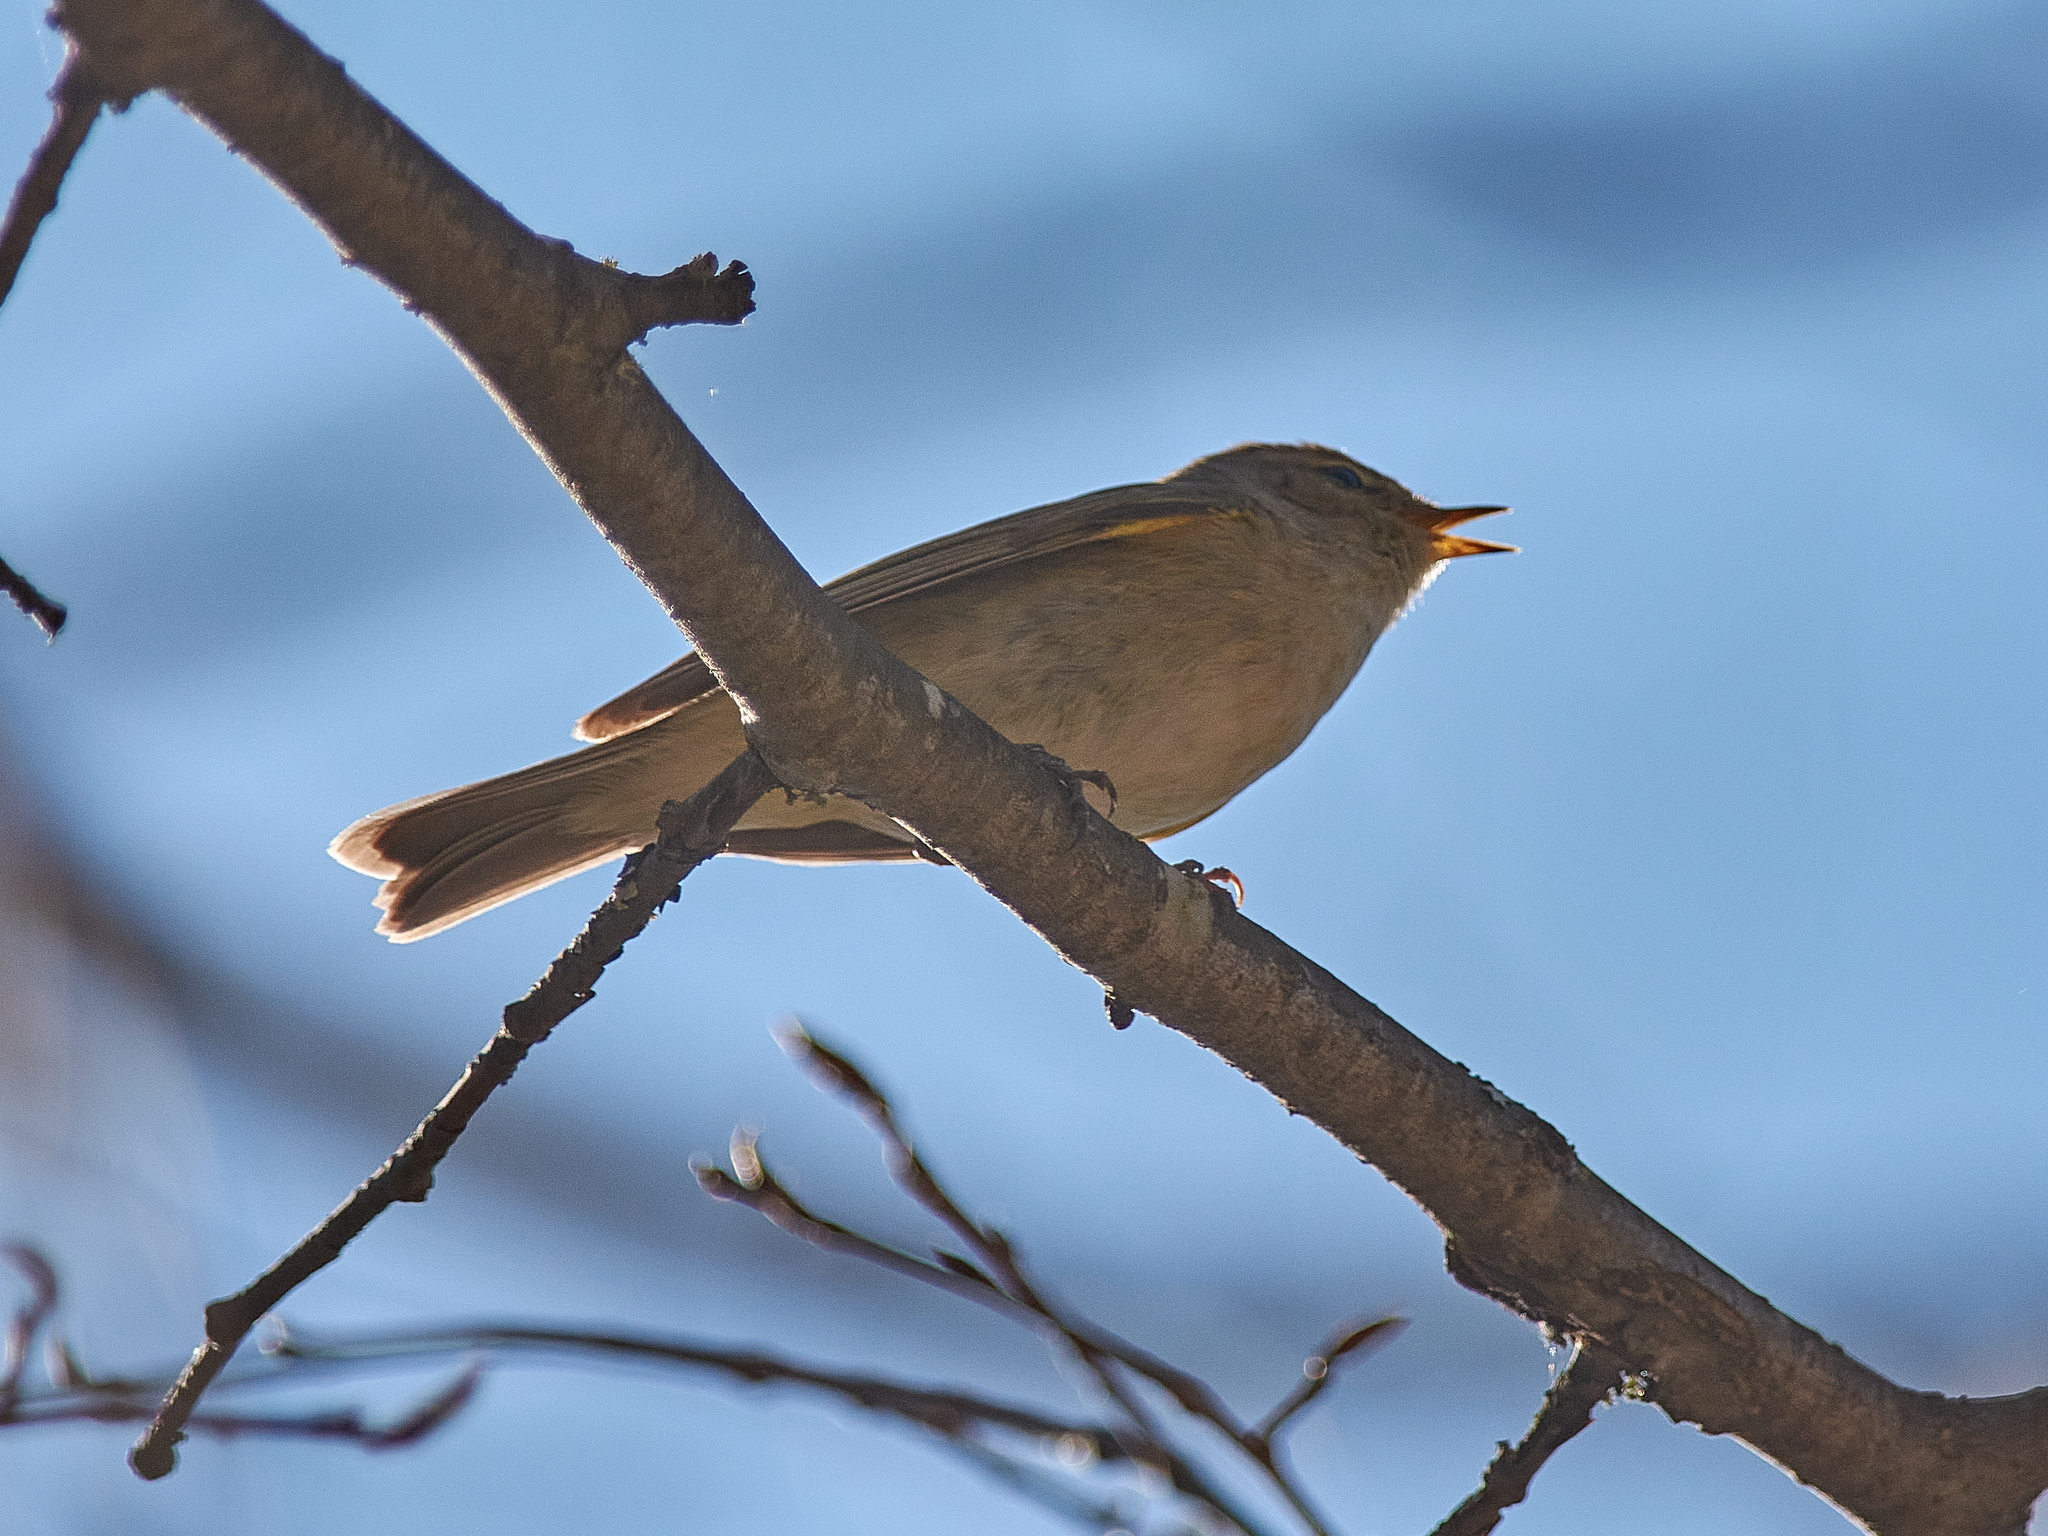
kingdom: Animalia
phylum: Chordata
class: Aves
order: Passeriformes
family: Phylloscopidae
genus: Phylloscopus
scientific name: Phylloscopus collybita
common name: Common chiffchaff
